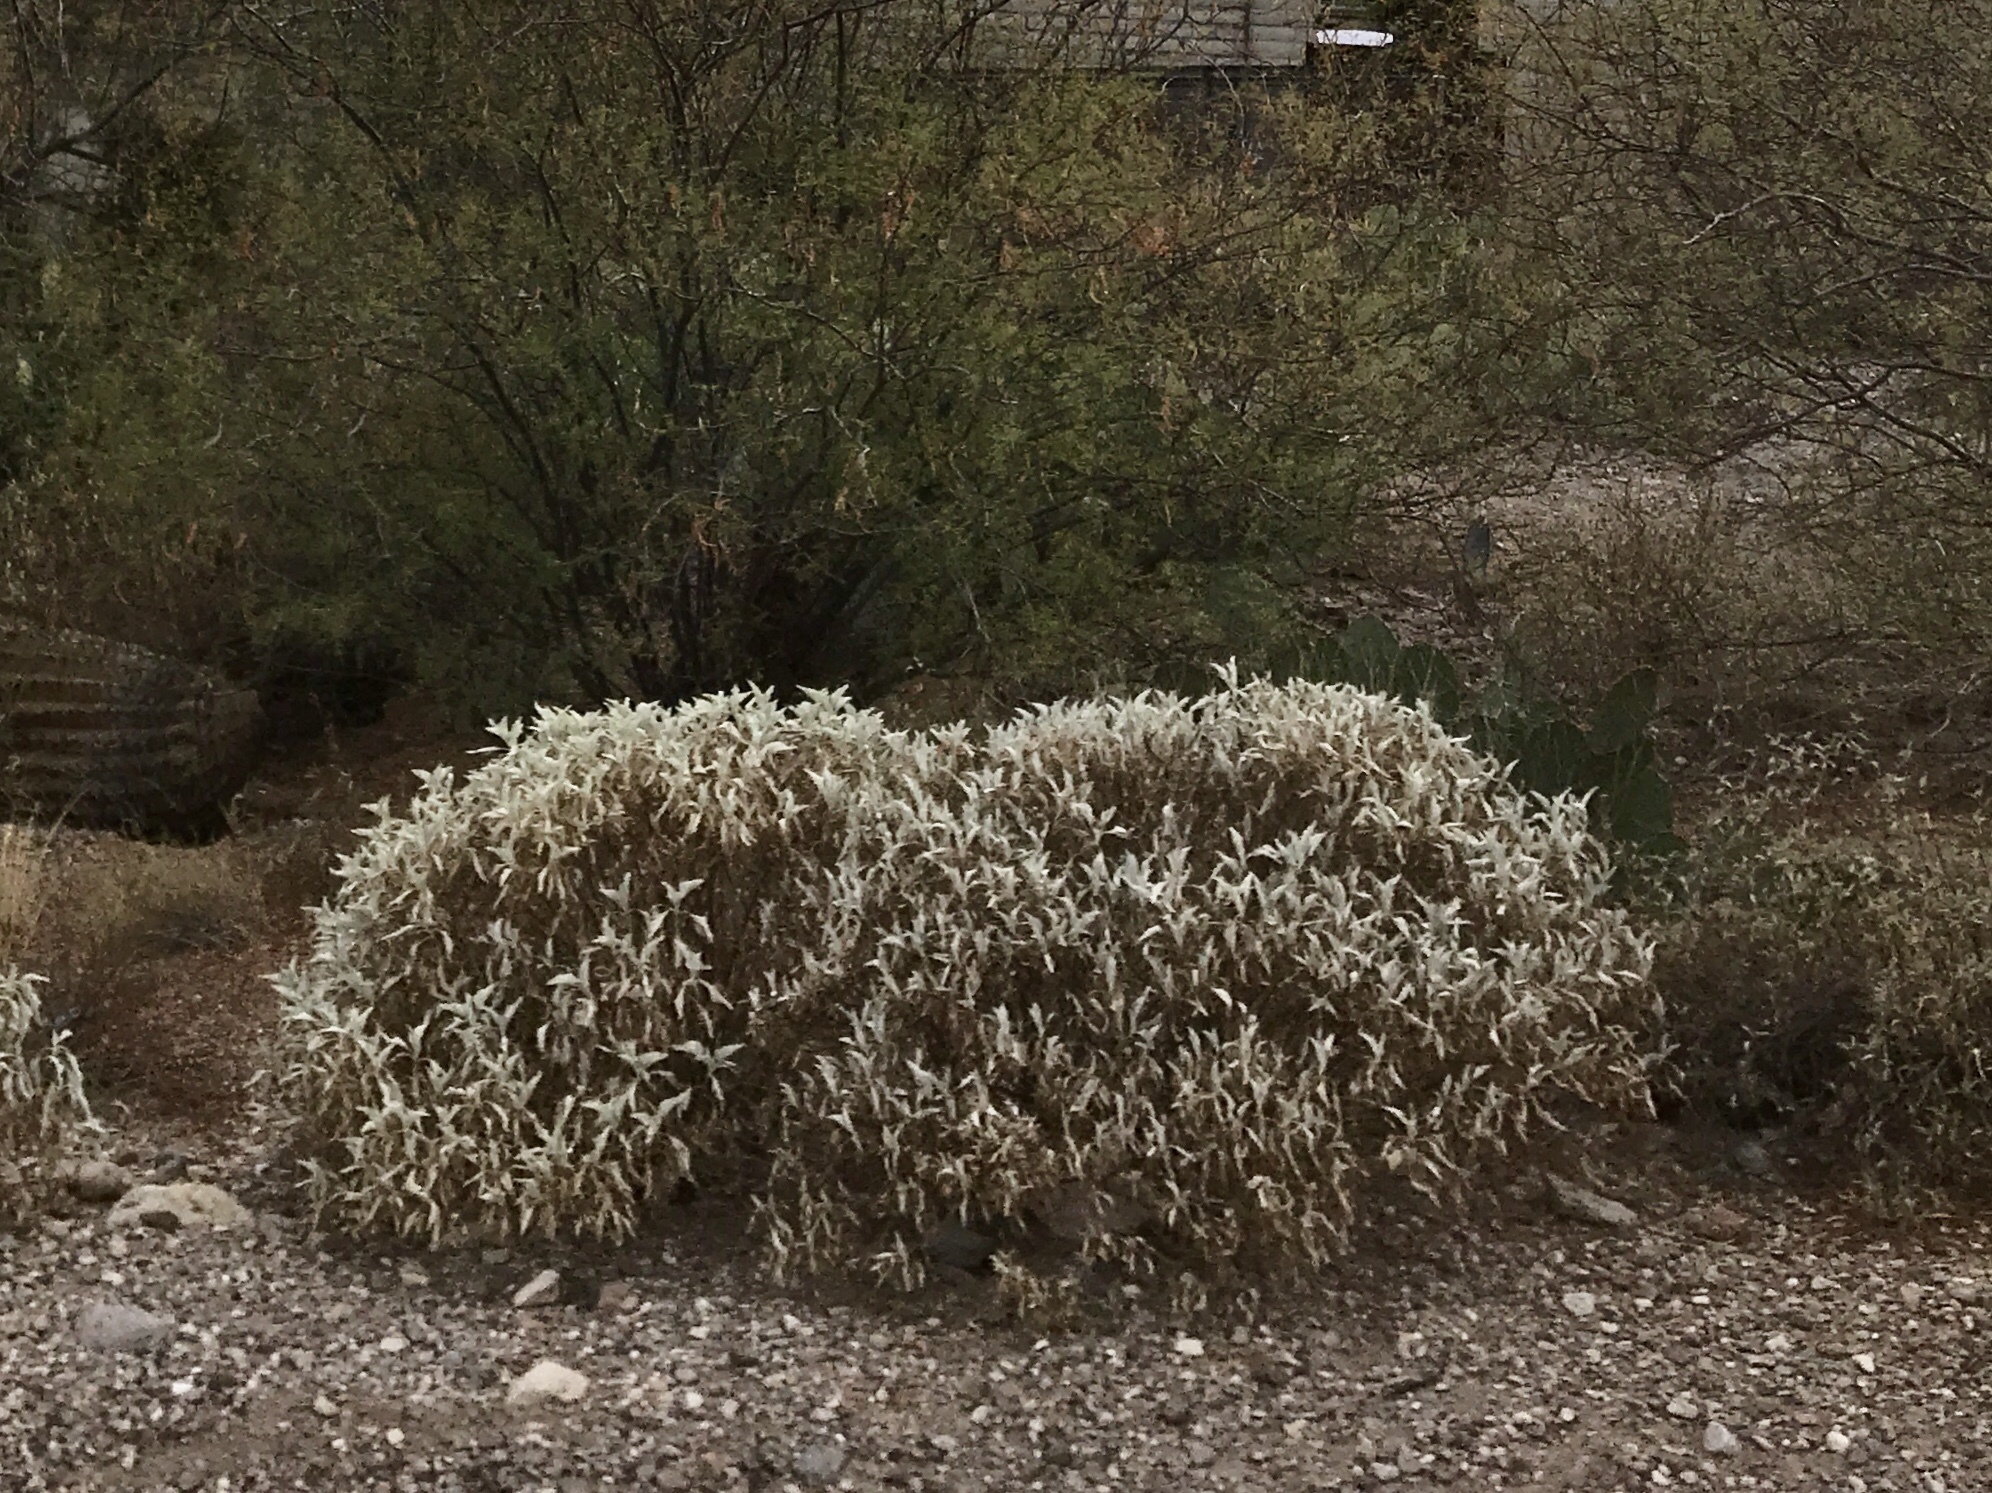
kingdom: Plantae
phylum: Tracheophyta
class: Magnoliopsida
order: Asterales
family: Asteraceae
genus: Encelia
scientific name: Encelia farinosa
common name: Brittlebush
